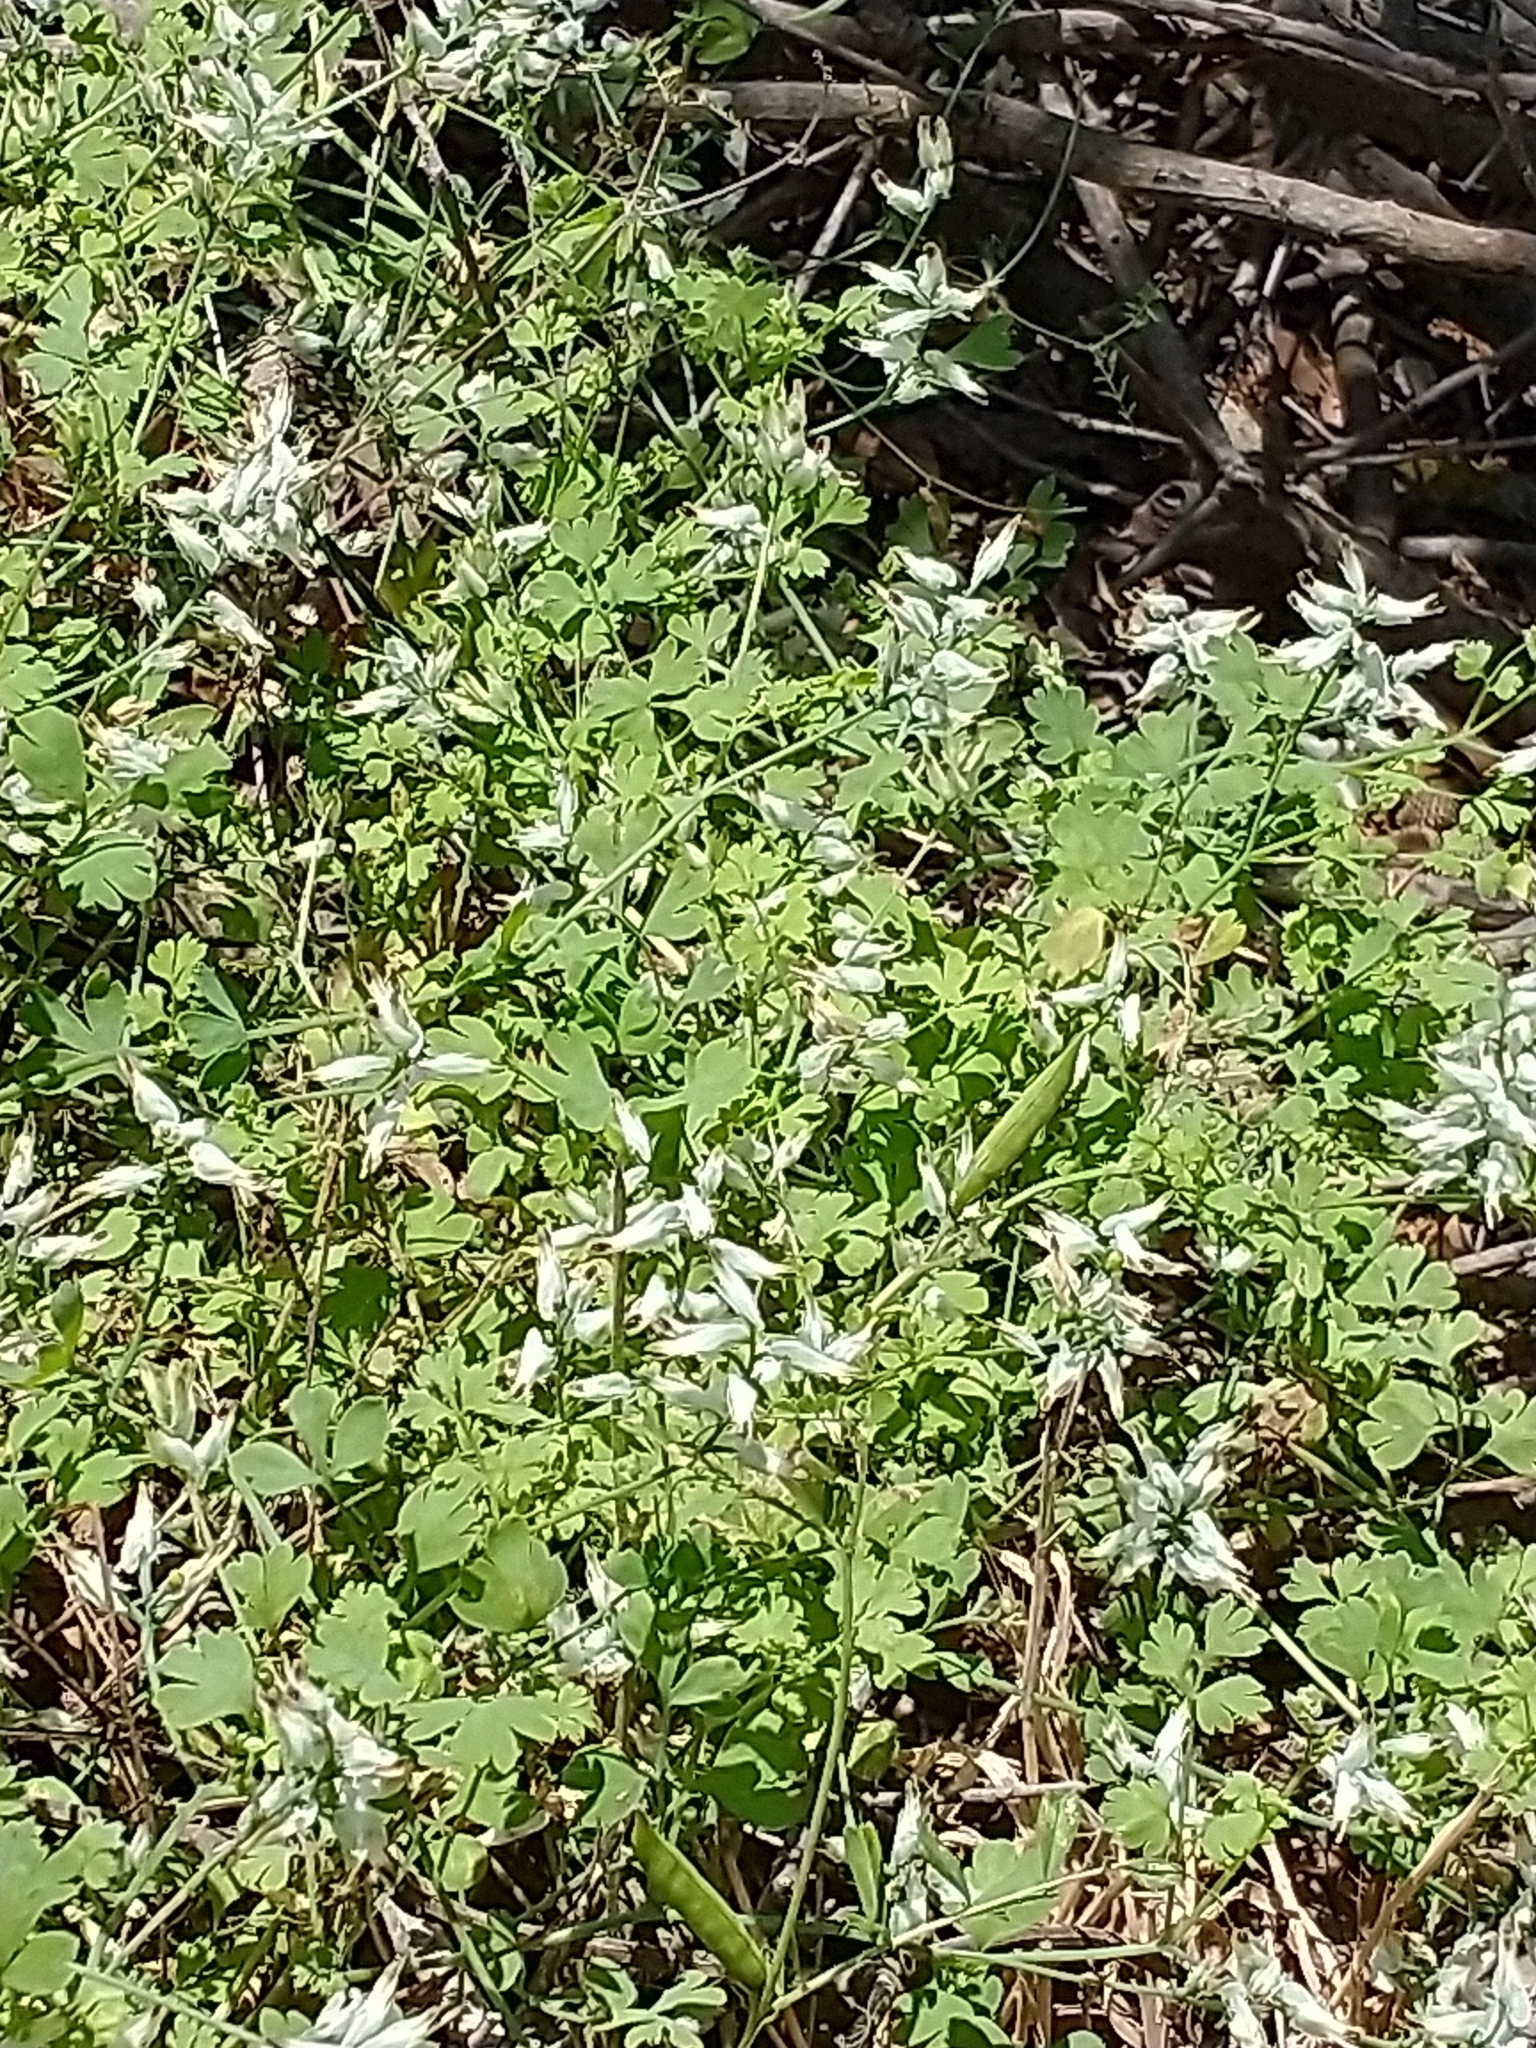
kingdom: Plantae
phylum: Tracheophyta
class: Magnoliopsida
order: Ranunculales
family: Papaveraceae
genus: Fumaria
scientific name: Fumaria capreolata
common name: White ramping-fumitory
